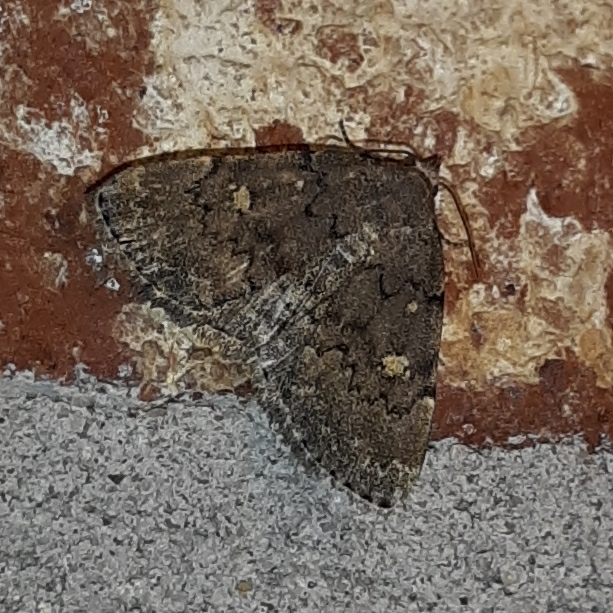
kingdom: Animalia
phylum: Arthropoda
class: Insecta
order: Lepidoptera
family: Erebidae
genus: Idia
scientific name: Idia aemula
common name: Common idia moth
